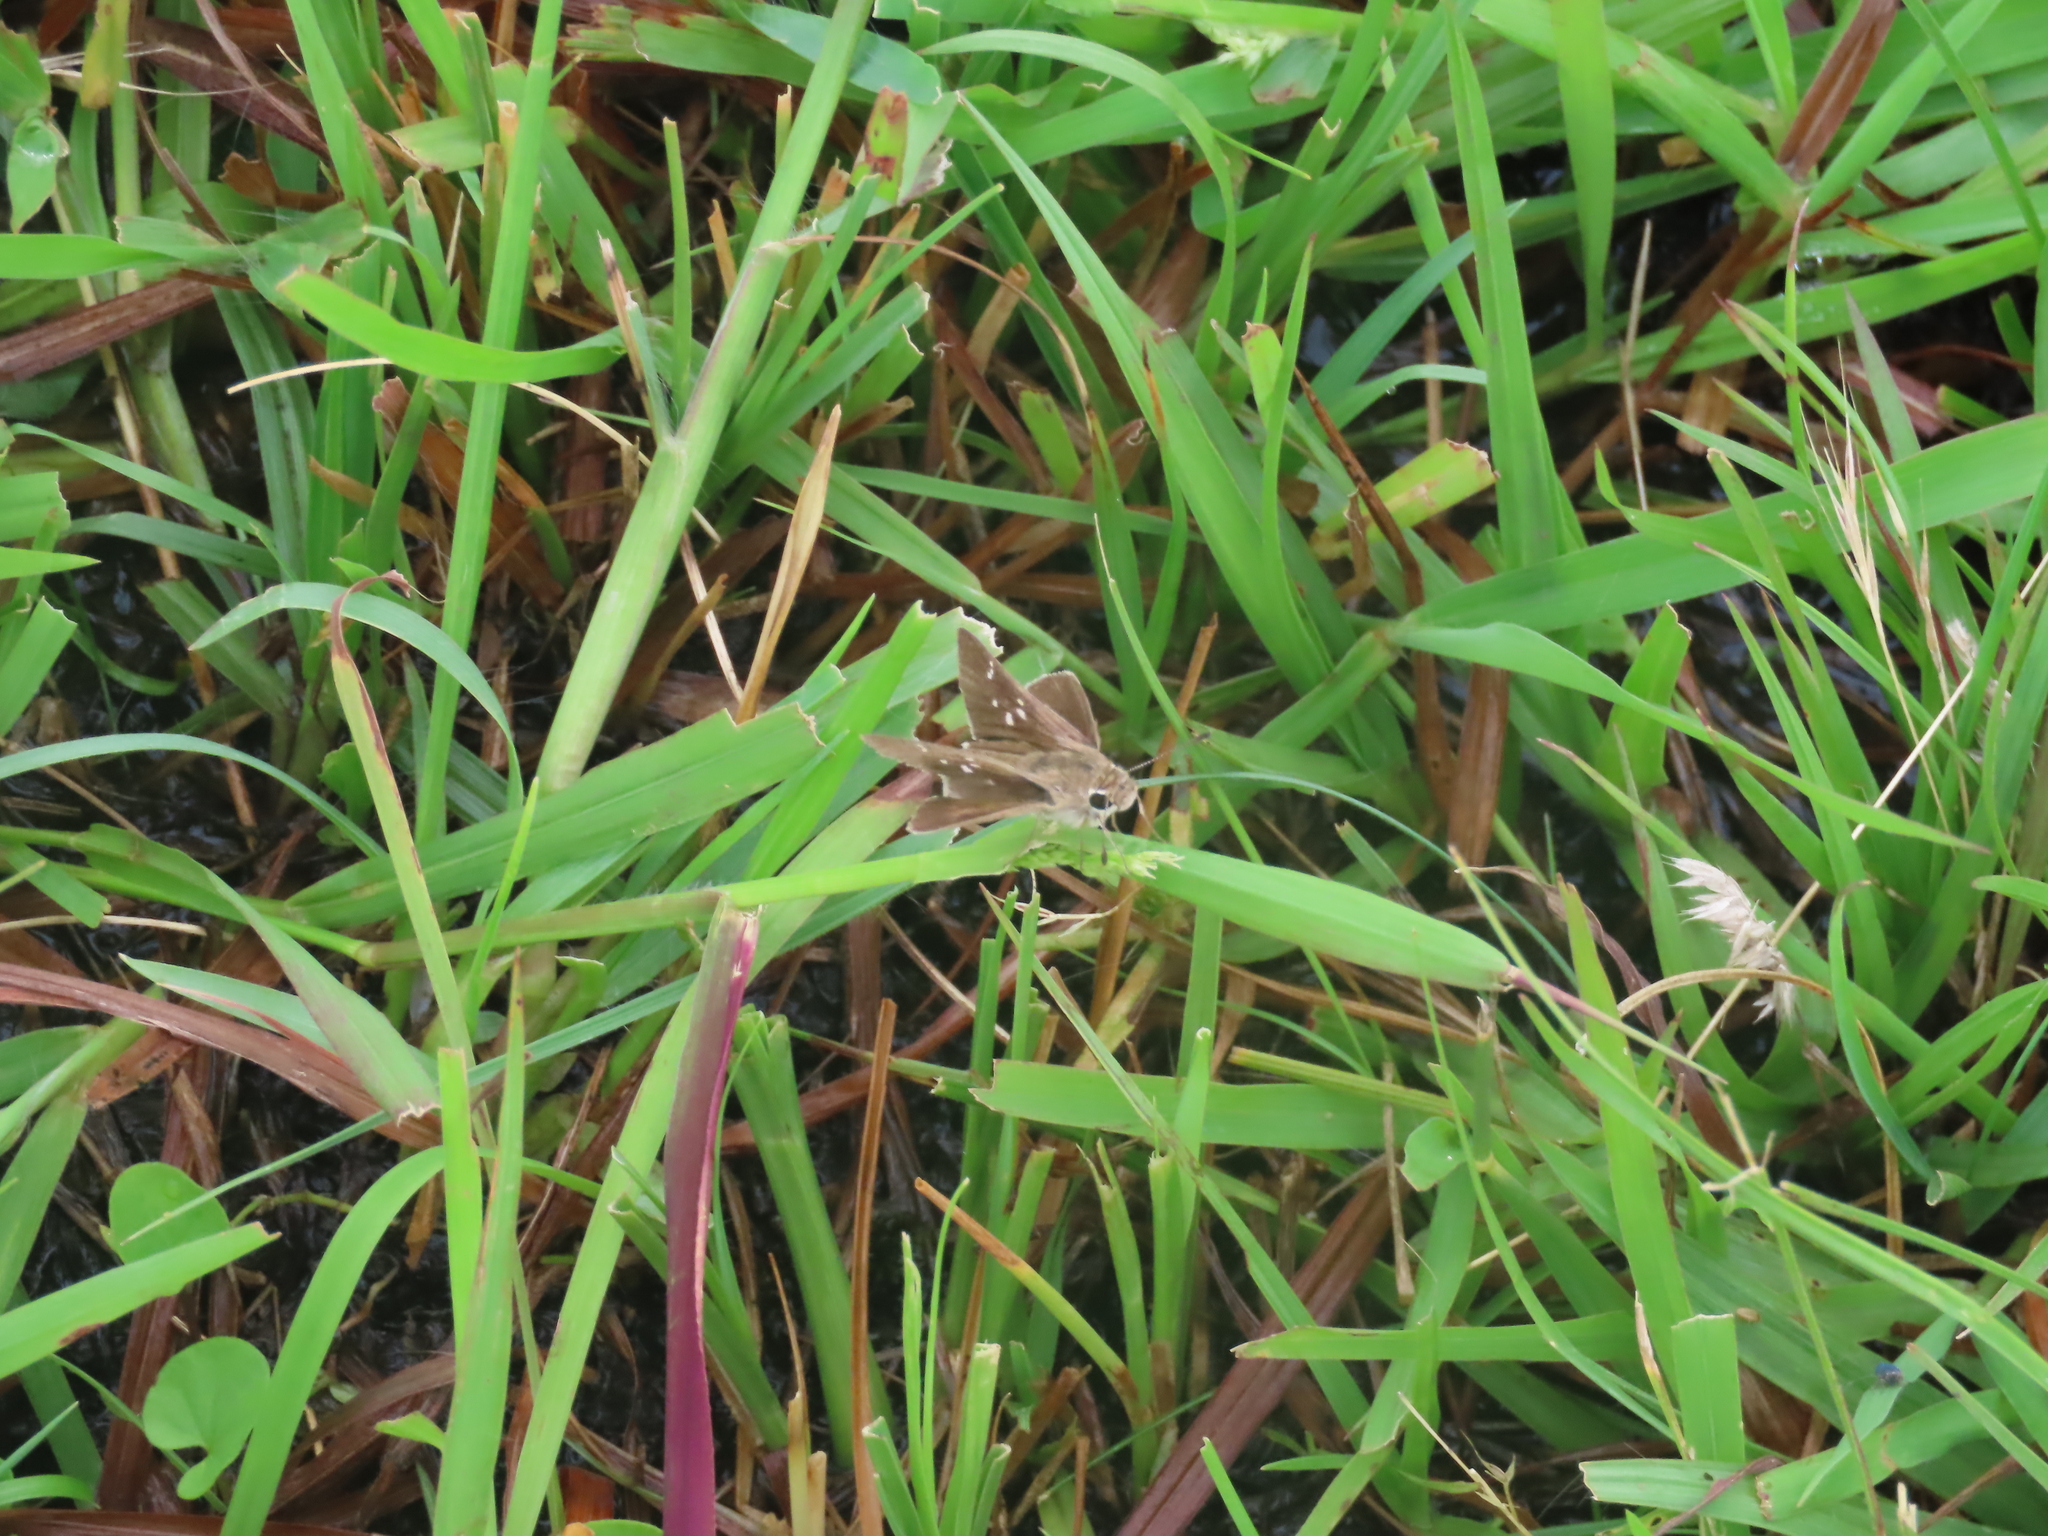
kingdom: Animalia
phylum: Arthropoda
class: Insecta
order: Lepidoptera
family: Hesperiidae
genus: Lerodea
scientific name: Lerodea eufala
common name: Eufala skipper
